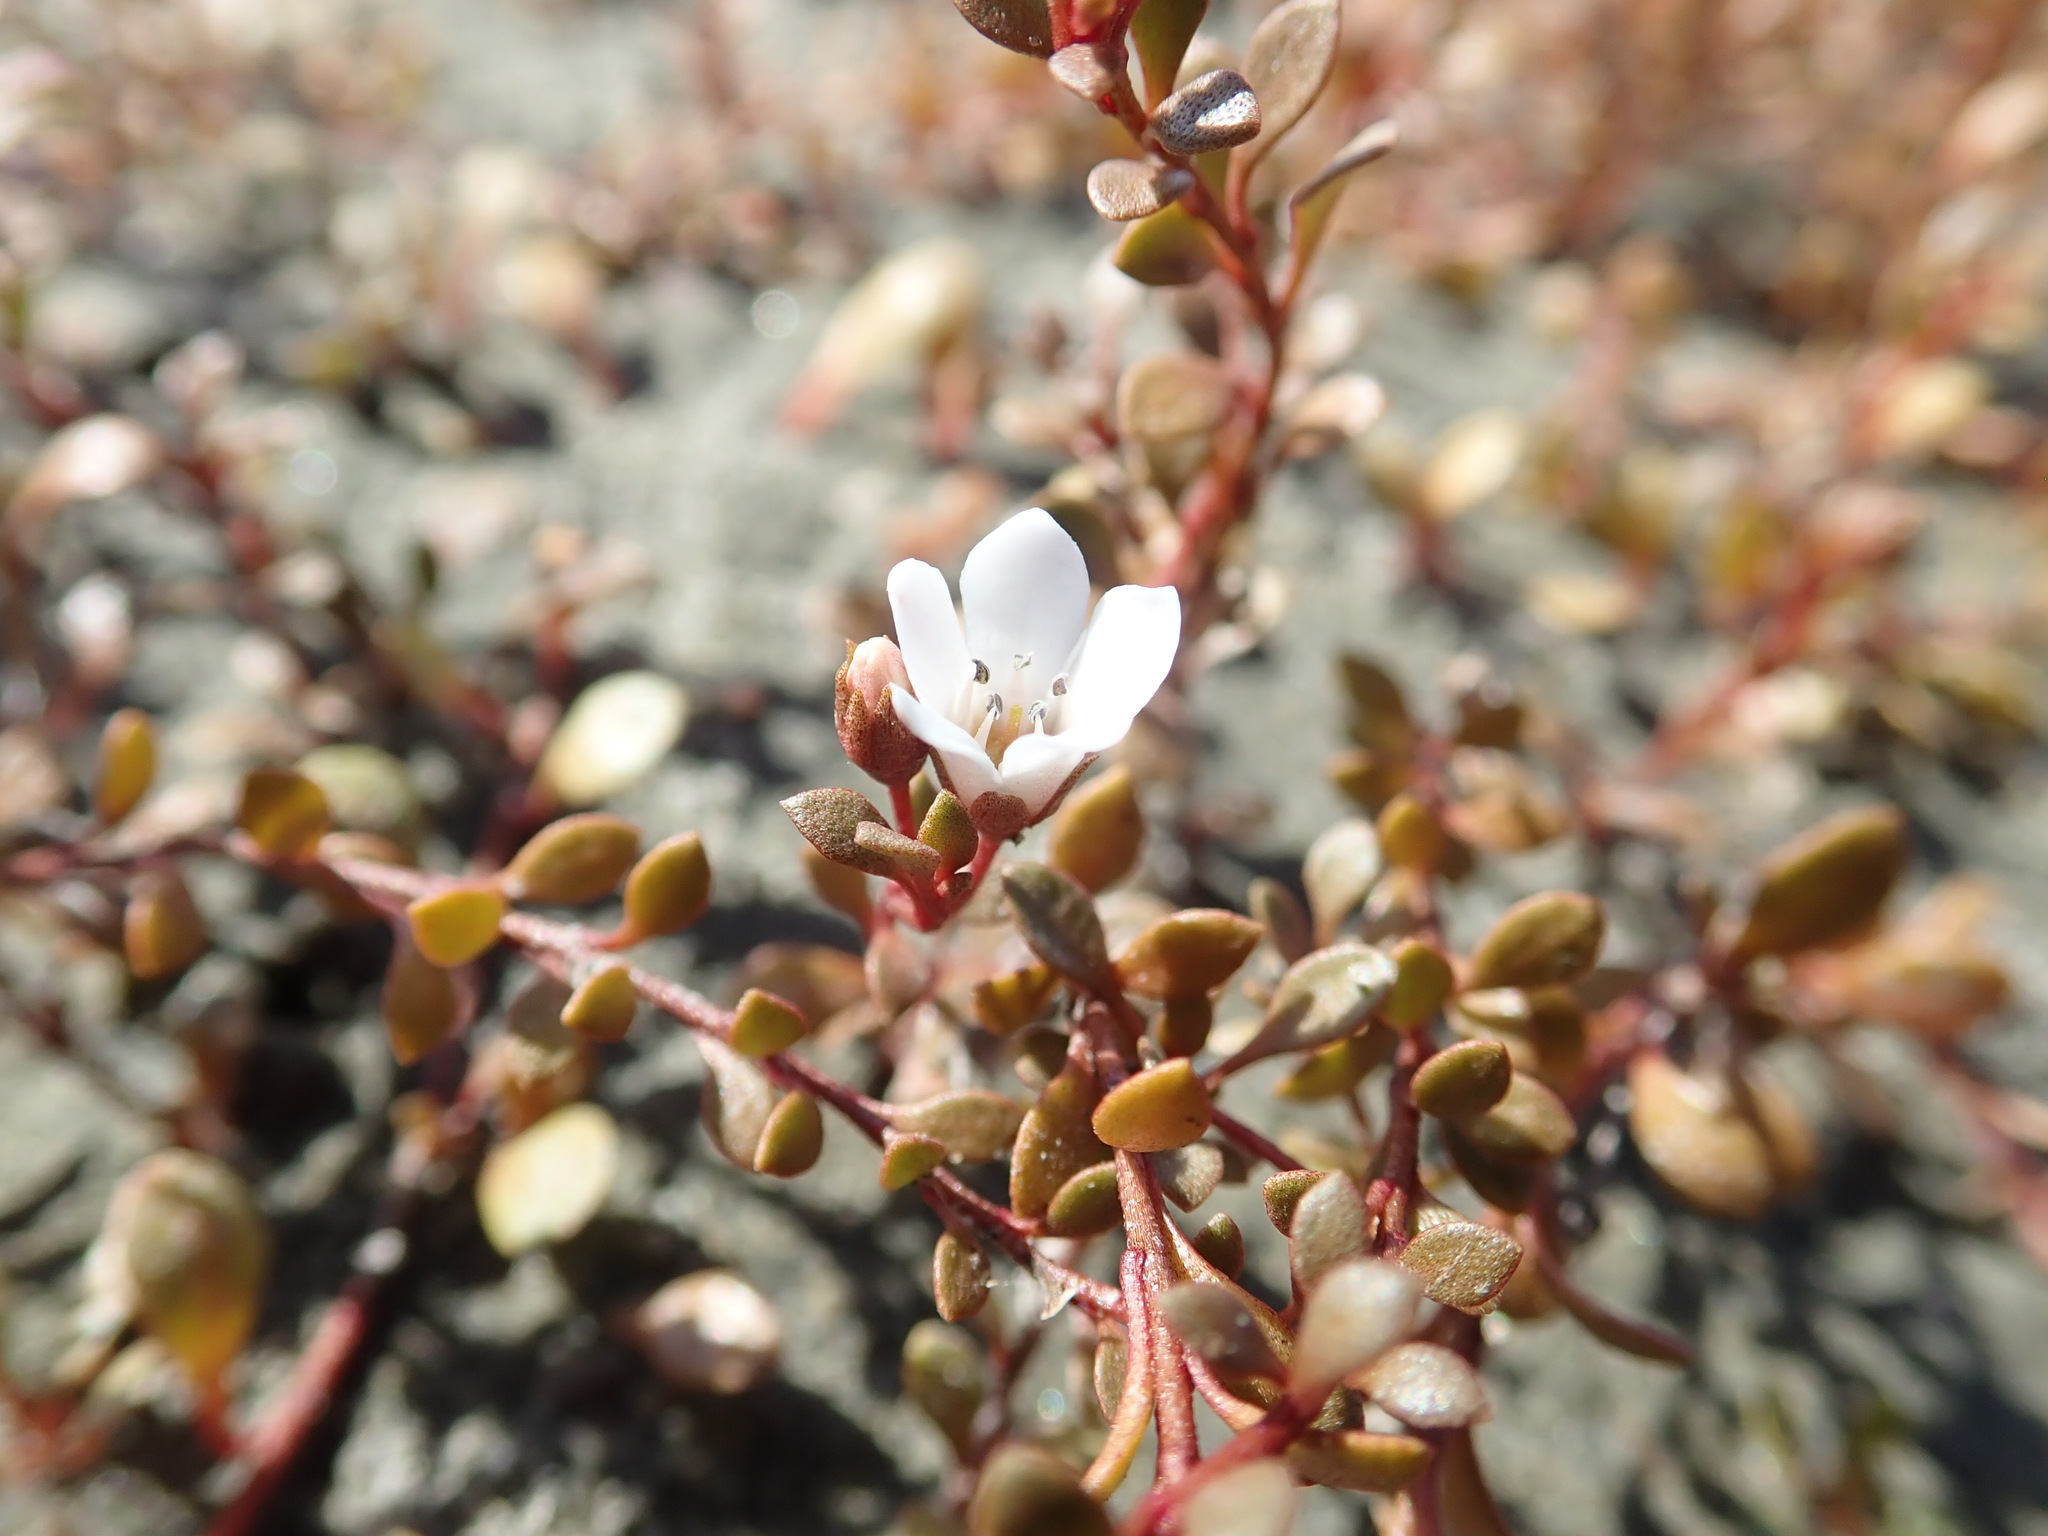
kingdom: Plantae
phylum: Tracheophyta
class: Magnoliopsida
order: Ericales
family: Primulaceae
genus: Samolus
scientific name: Samolus repens
